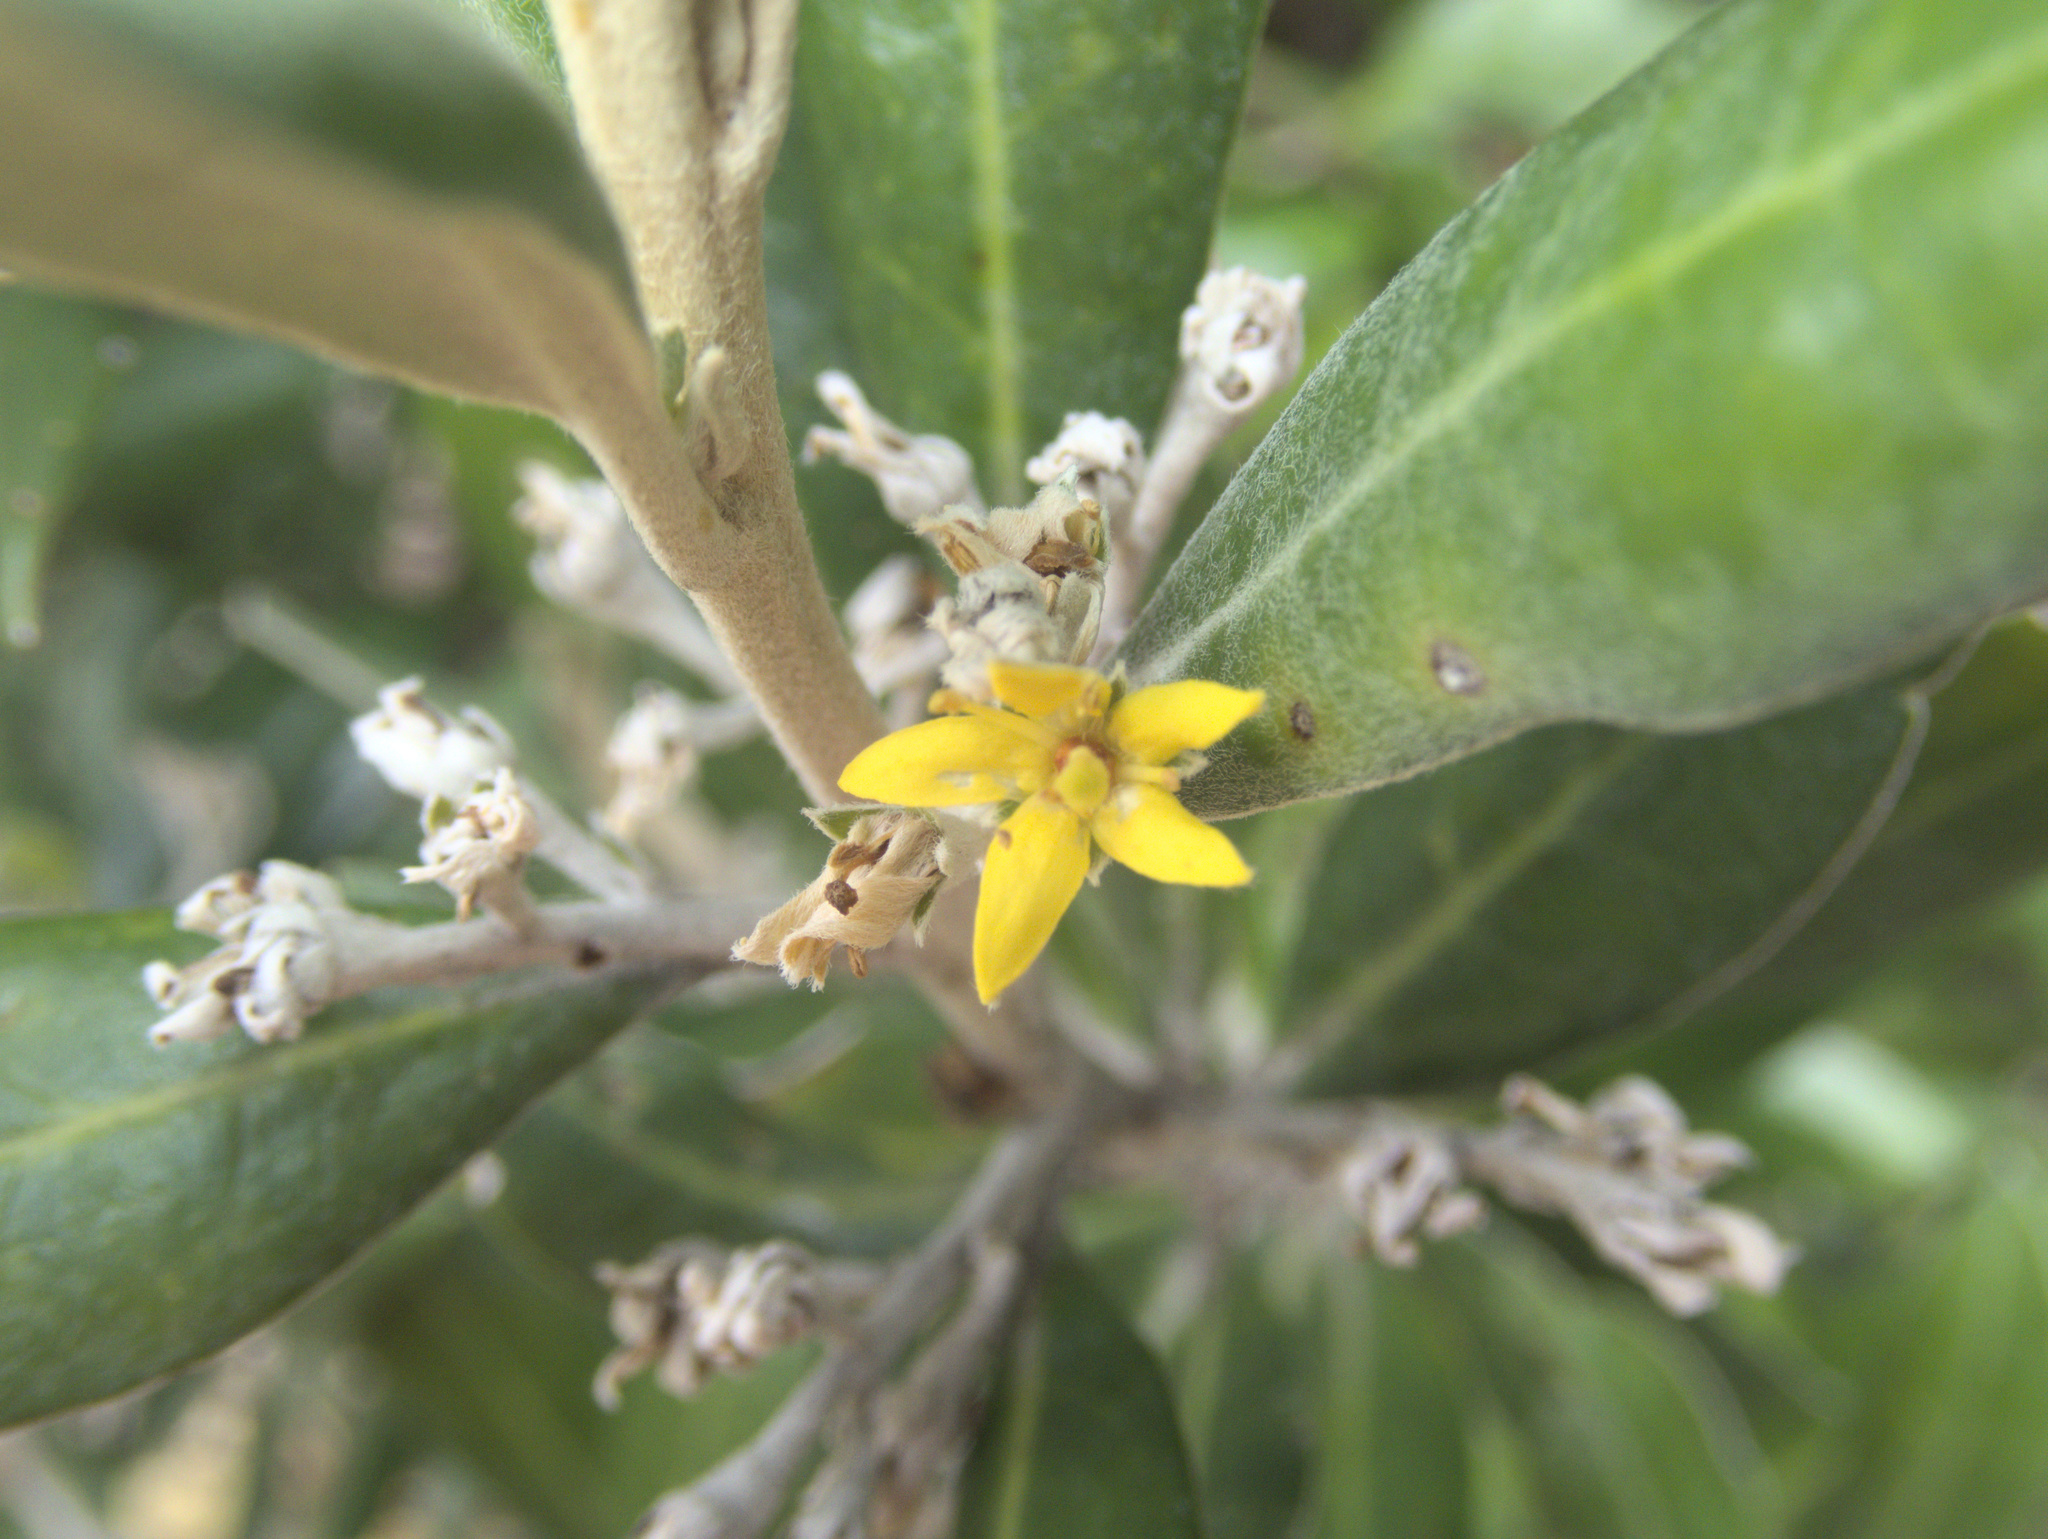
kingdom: Plantae
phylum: Tracheophyta
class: Magnoliopsida
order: Asterales
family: Argophyllaceae
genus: Corokia
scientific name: Corokia macrocarpa
